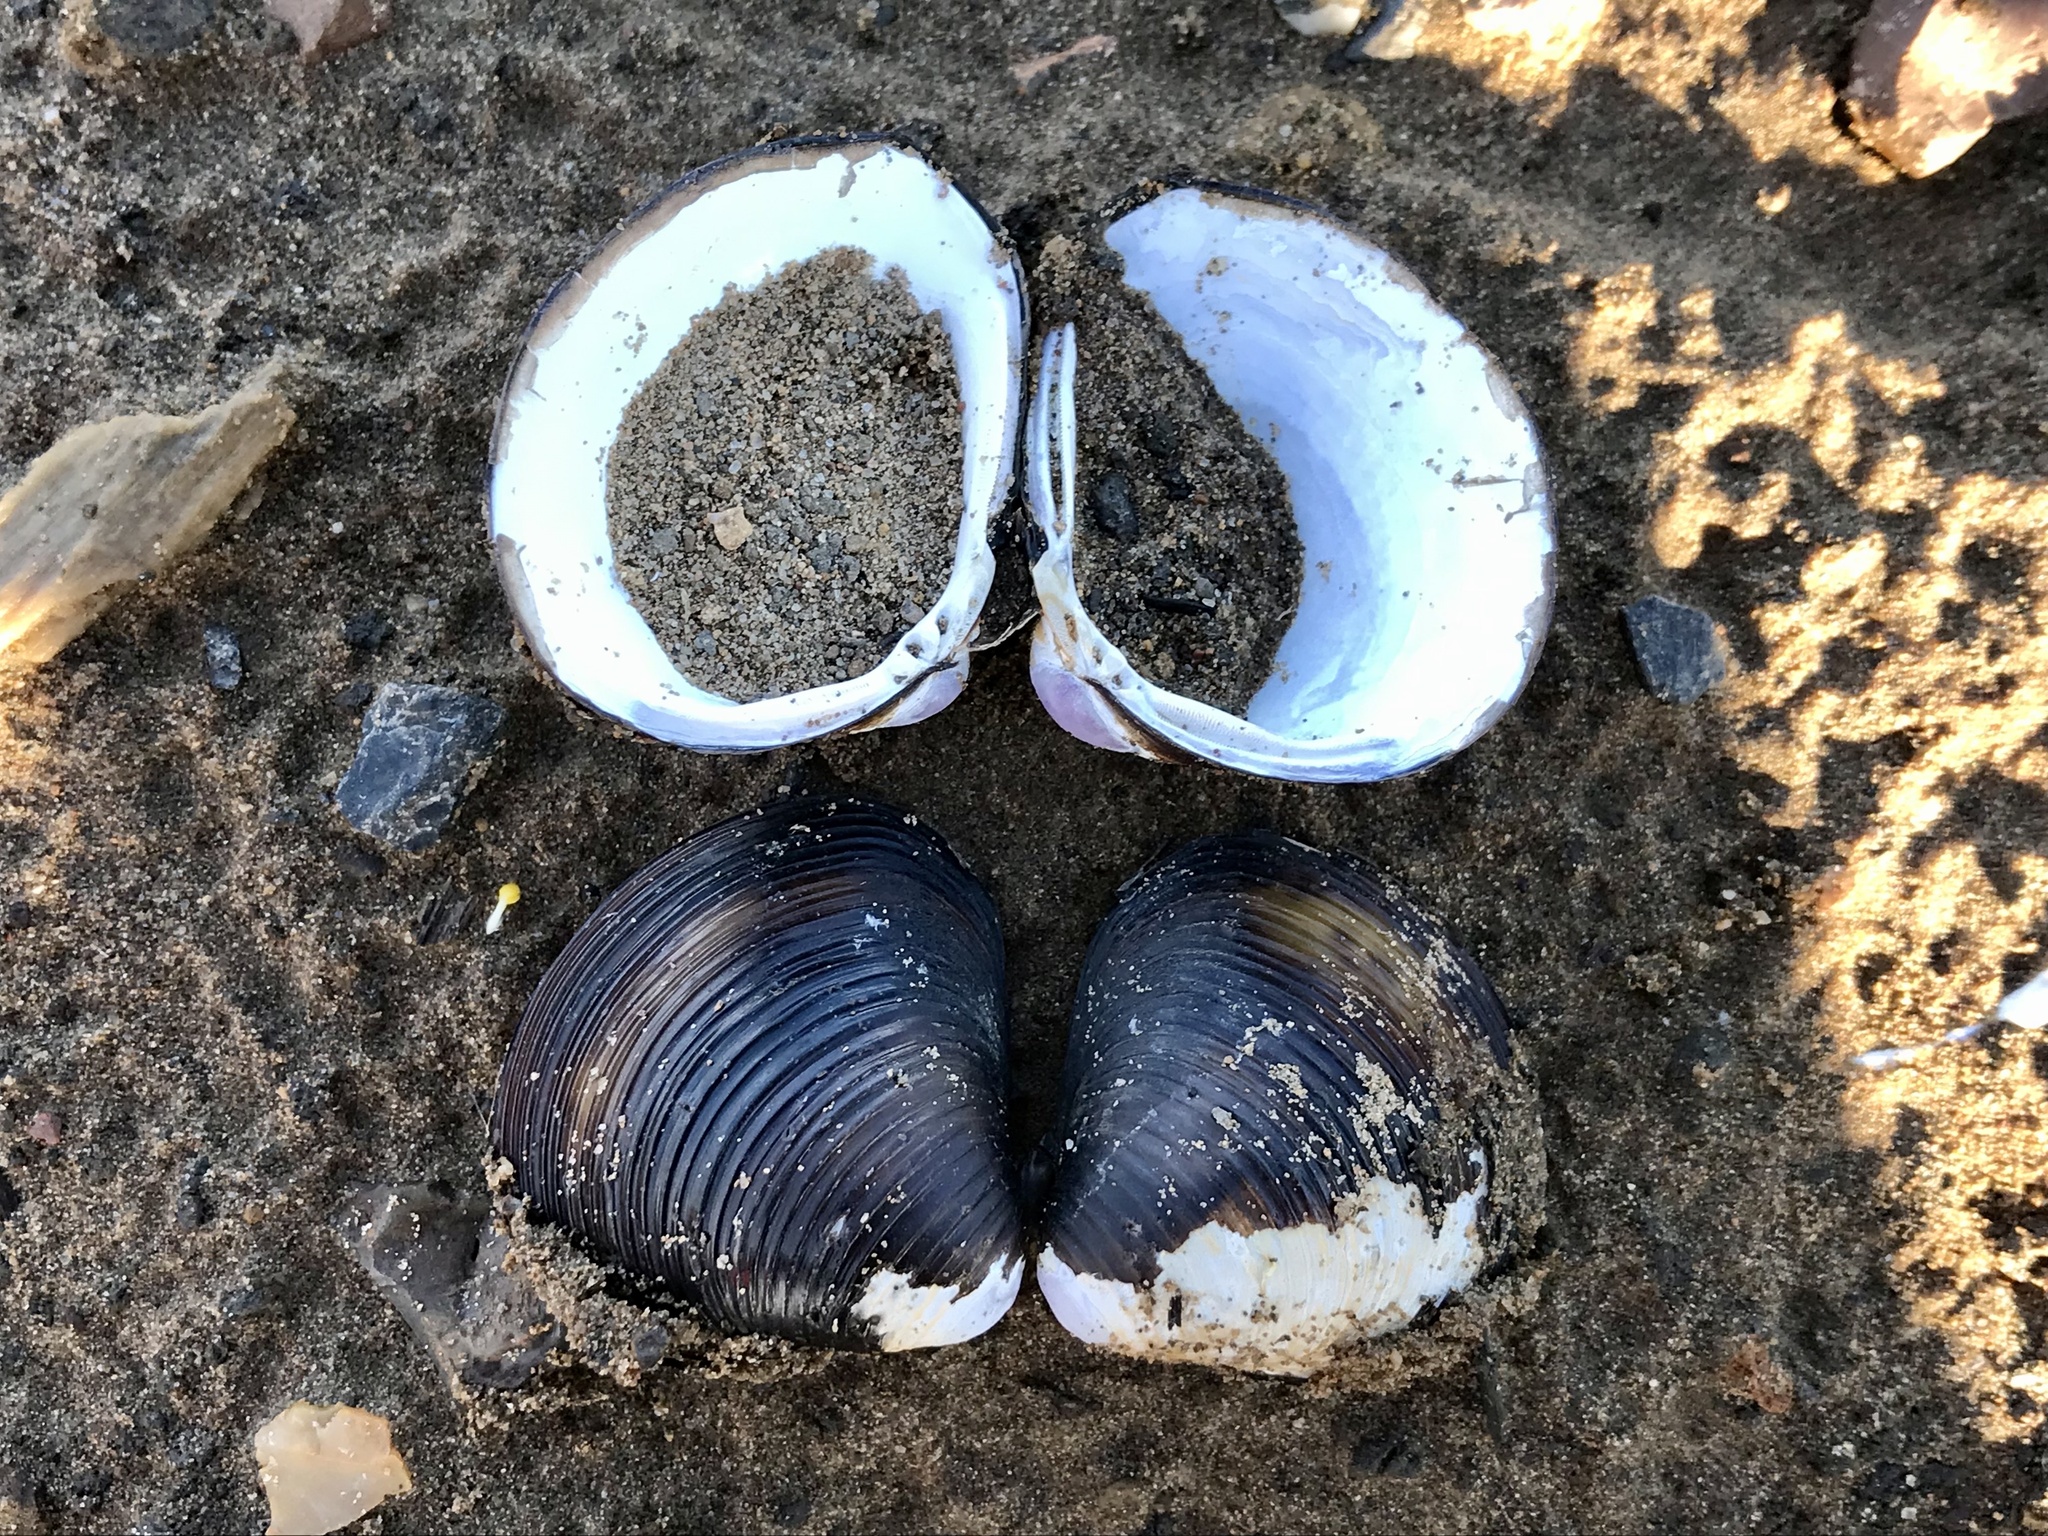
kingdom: Animalia
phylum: Mollusca
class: Bivalvia
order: Venerida
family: Cyrenidae
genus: Corbicula
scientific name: Corbicula fluminea
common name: Asian clam
